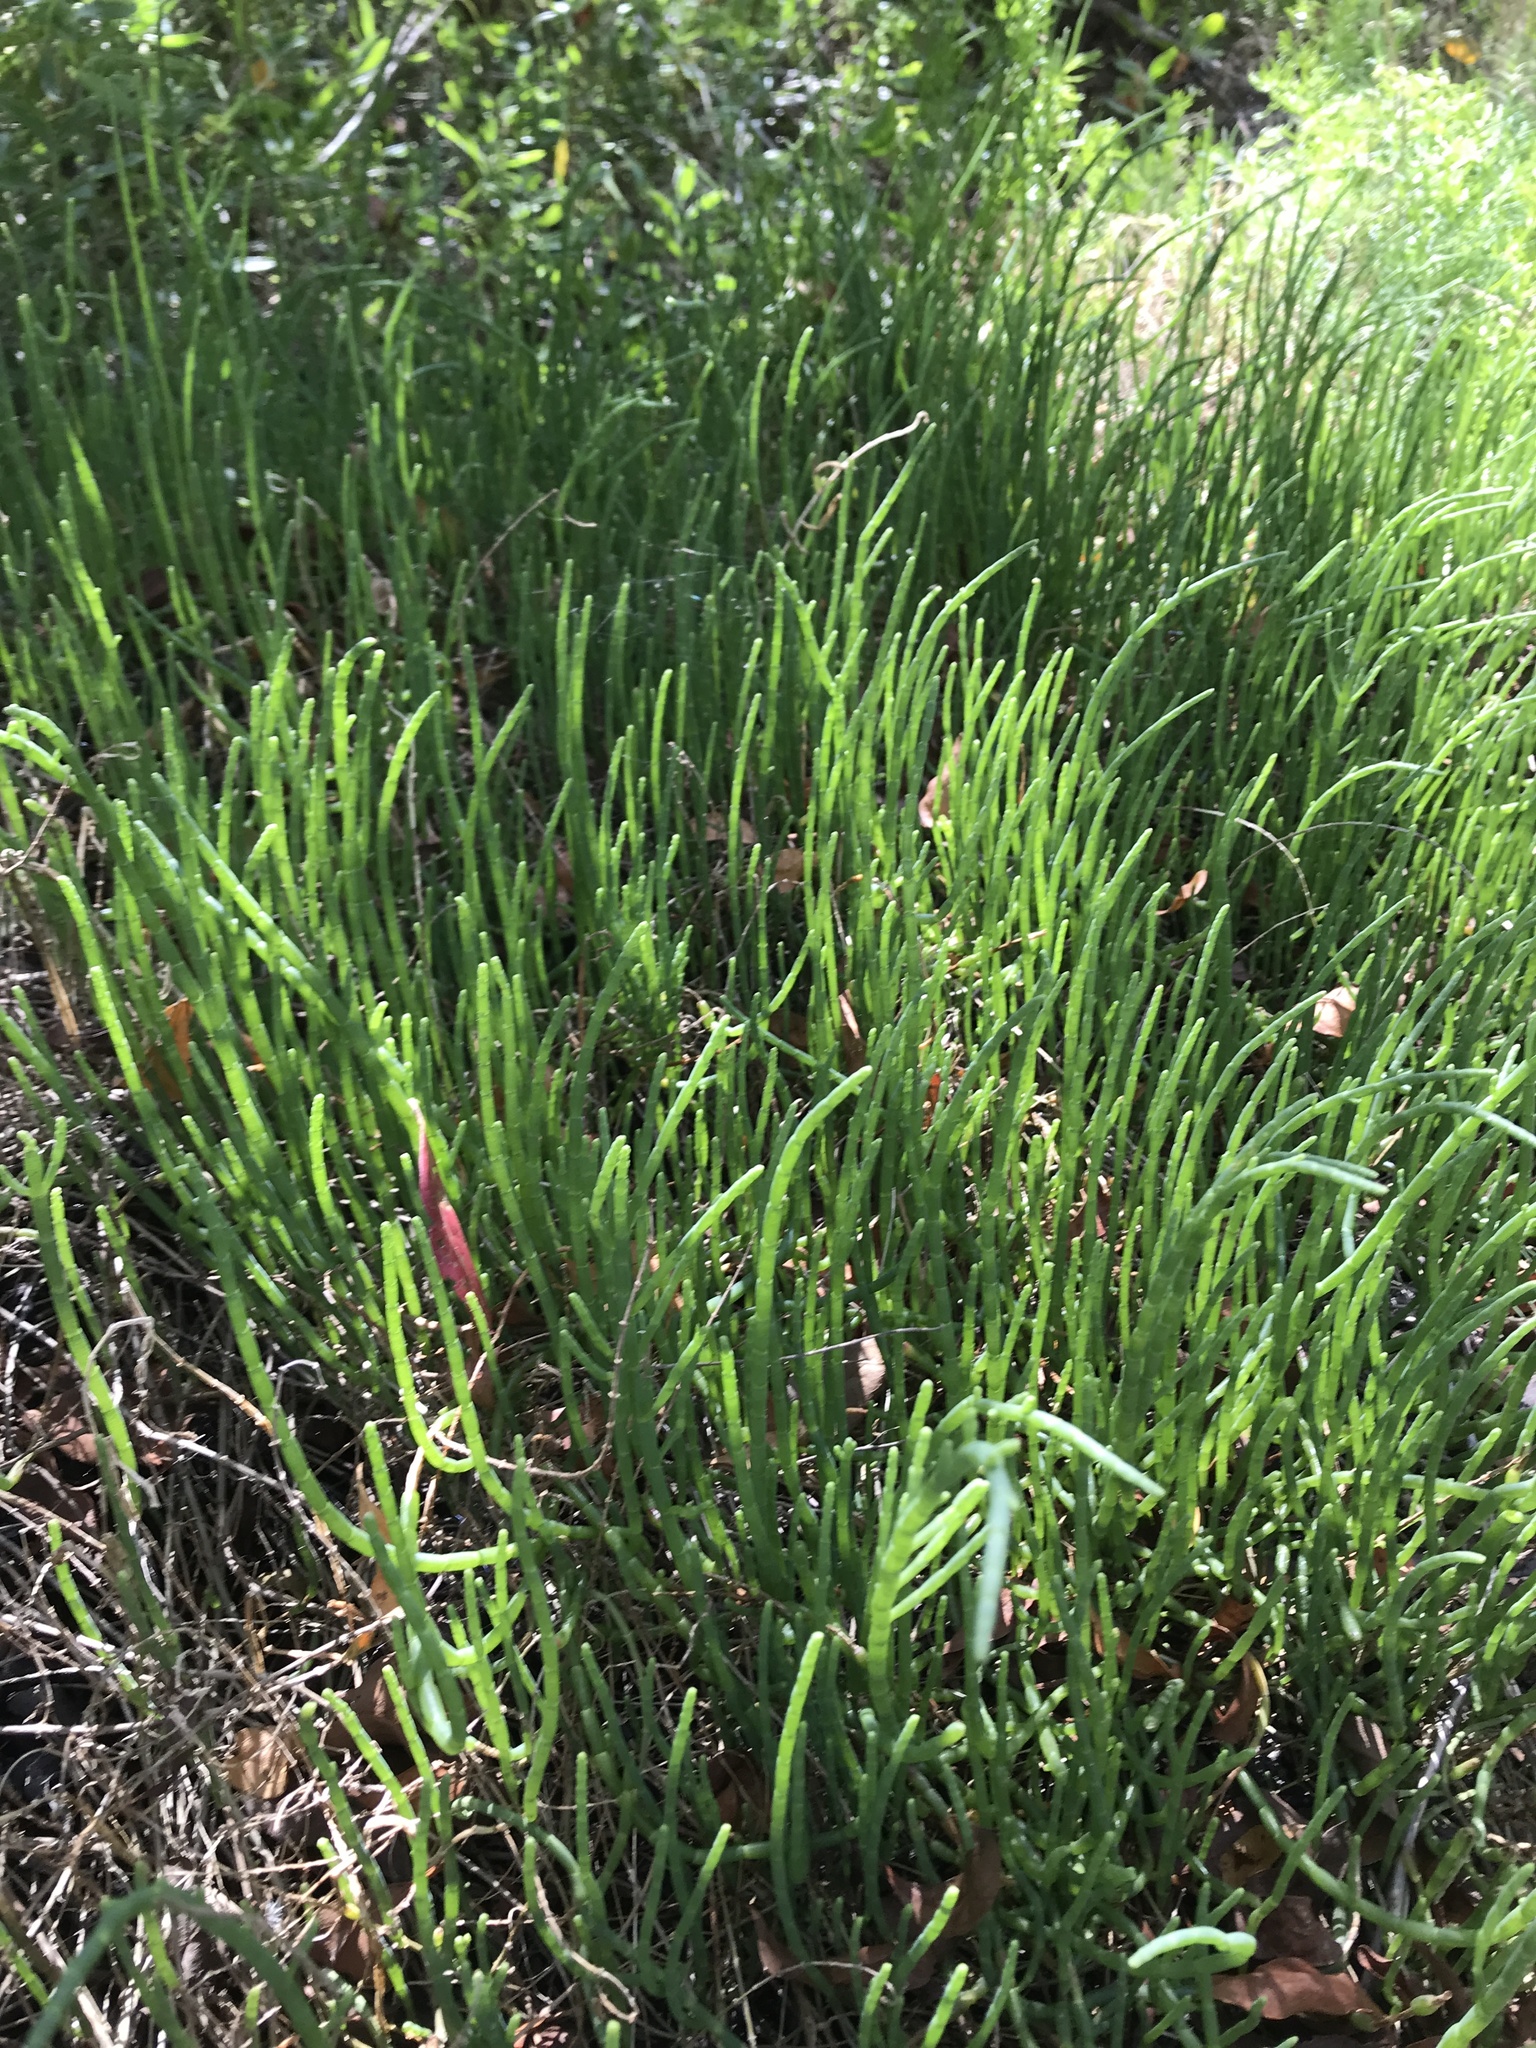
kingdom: Plantae
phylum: Tracheophyta
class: Magnoliopsida
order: Caryophyllales
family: Amaranthaceae
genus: Salicornia
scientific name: Salicornia ambigua
